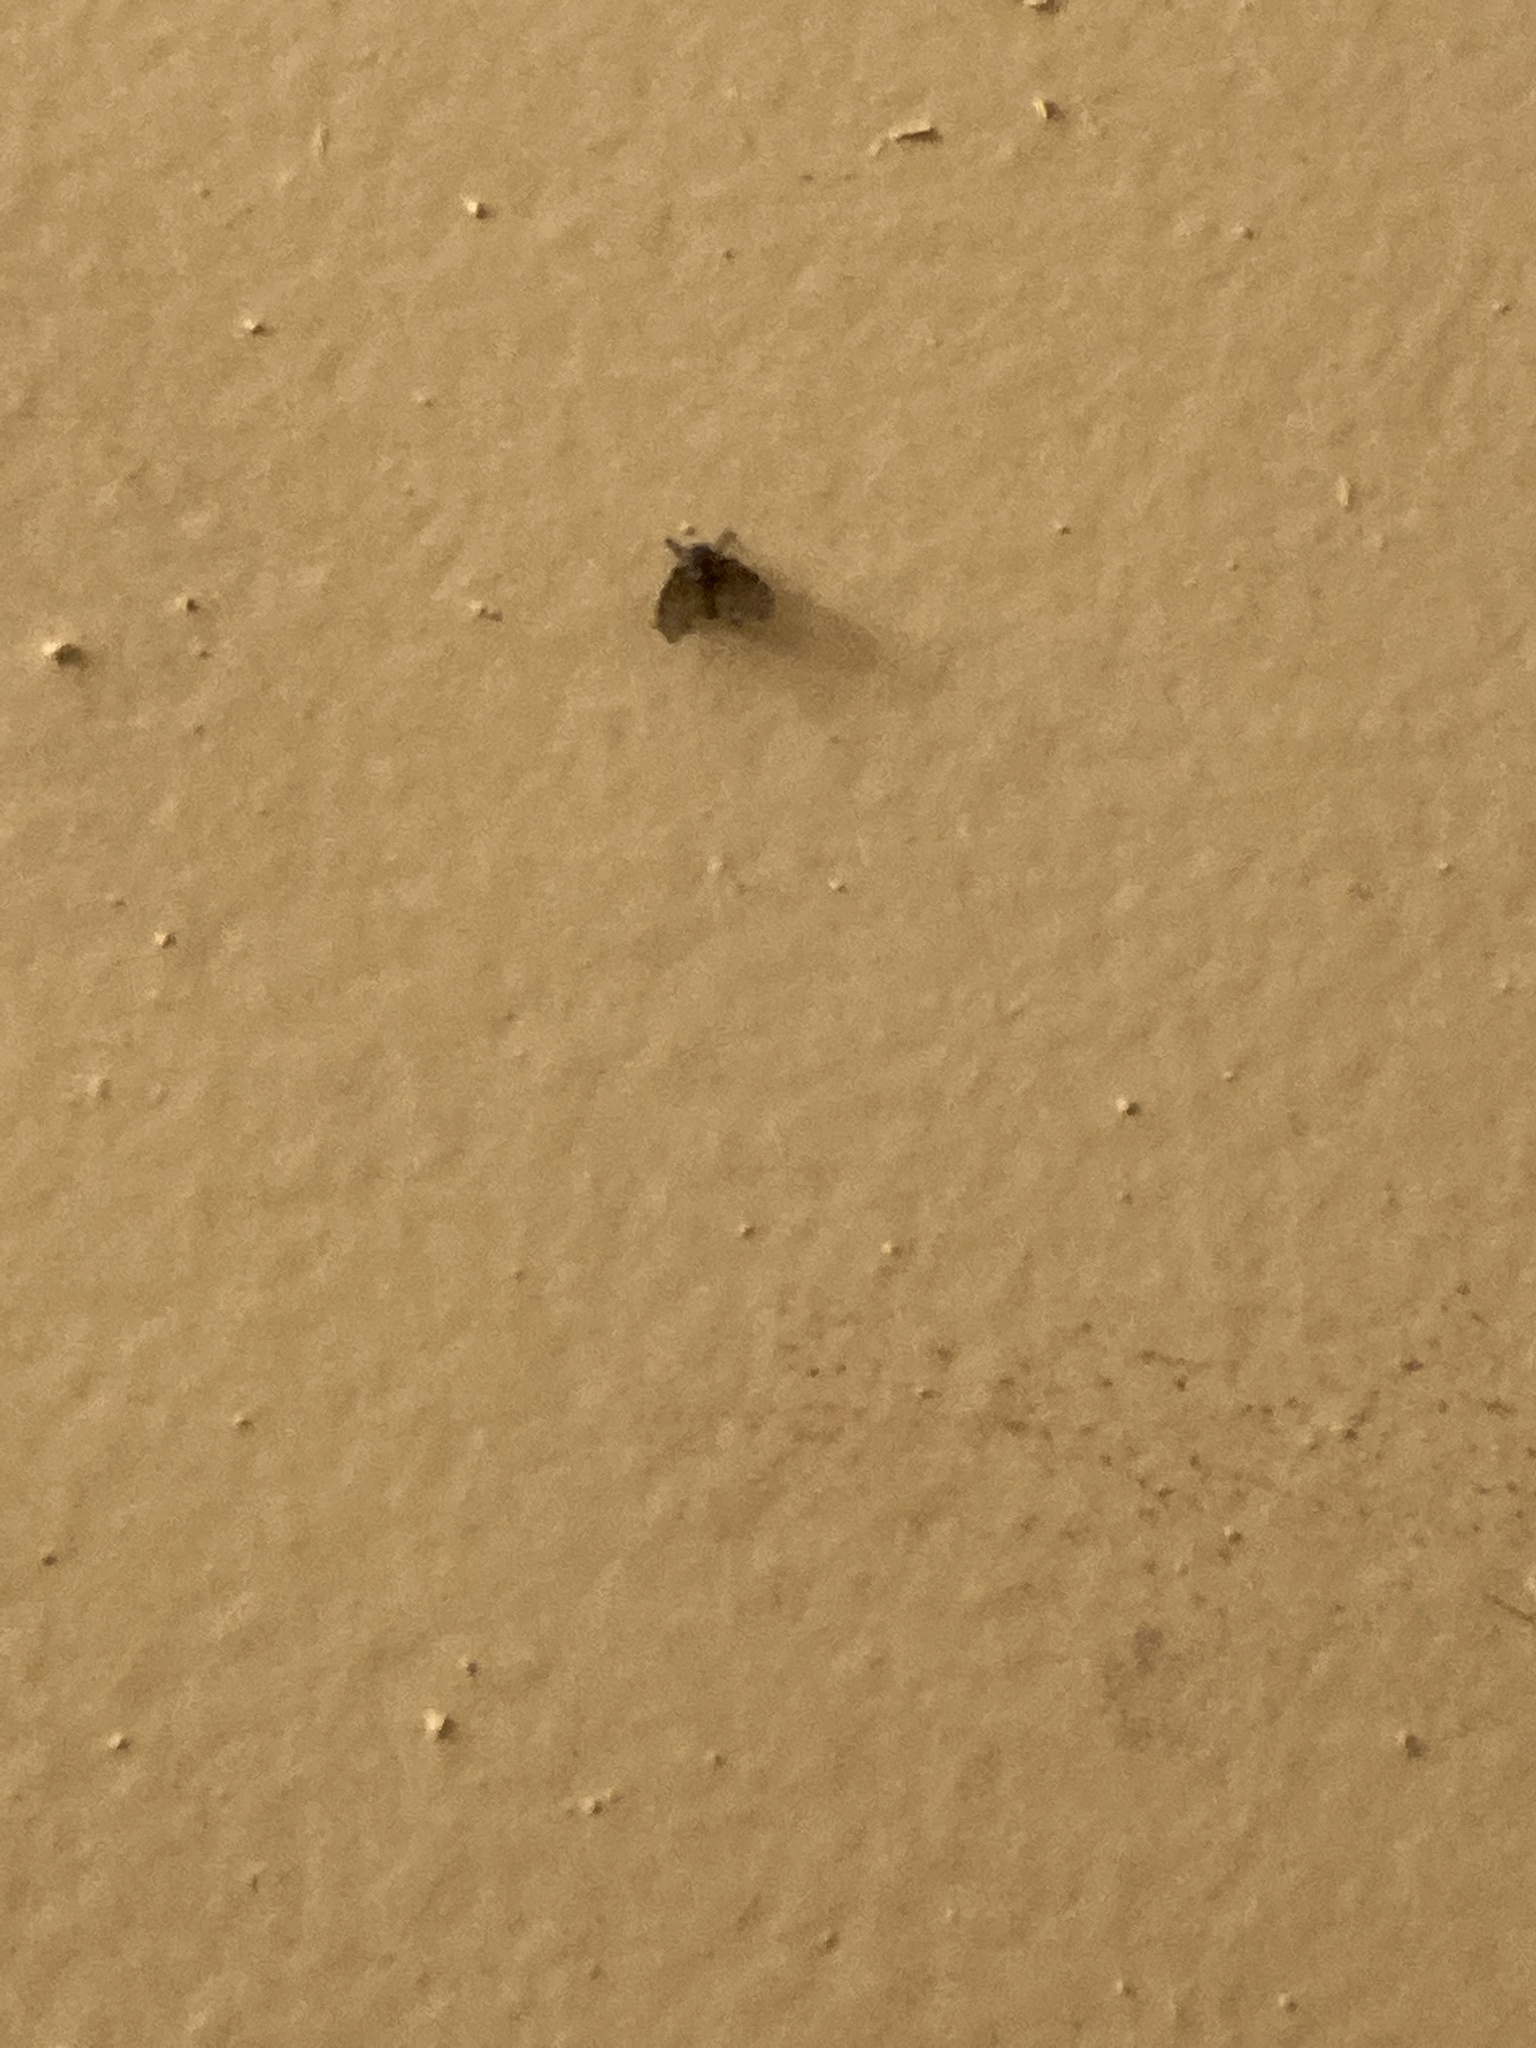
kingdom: Animalia
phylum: Arthropoda
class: Insecta
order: Diptera
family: Psychodidae
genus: Clogmia
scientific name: Clogmia albipunctatus
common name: White-spotted moth fly
